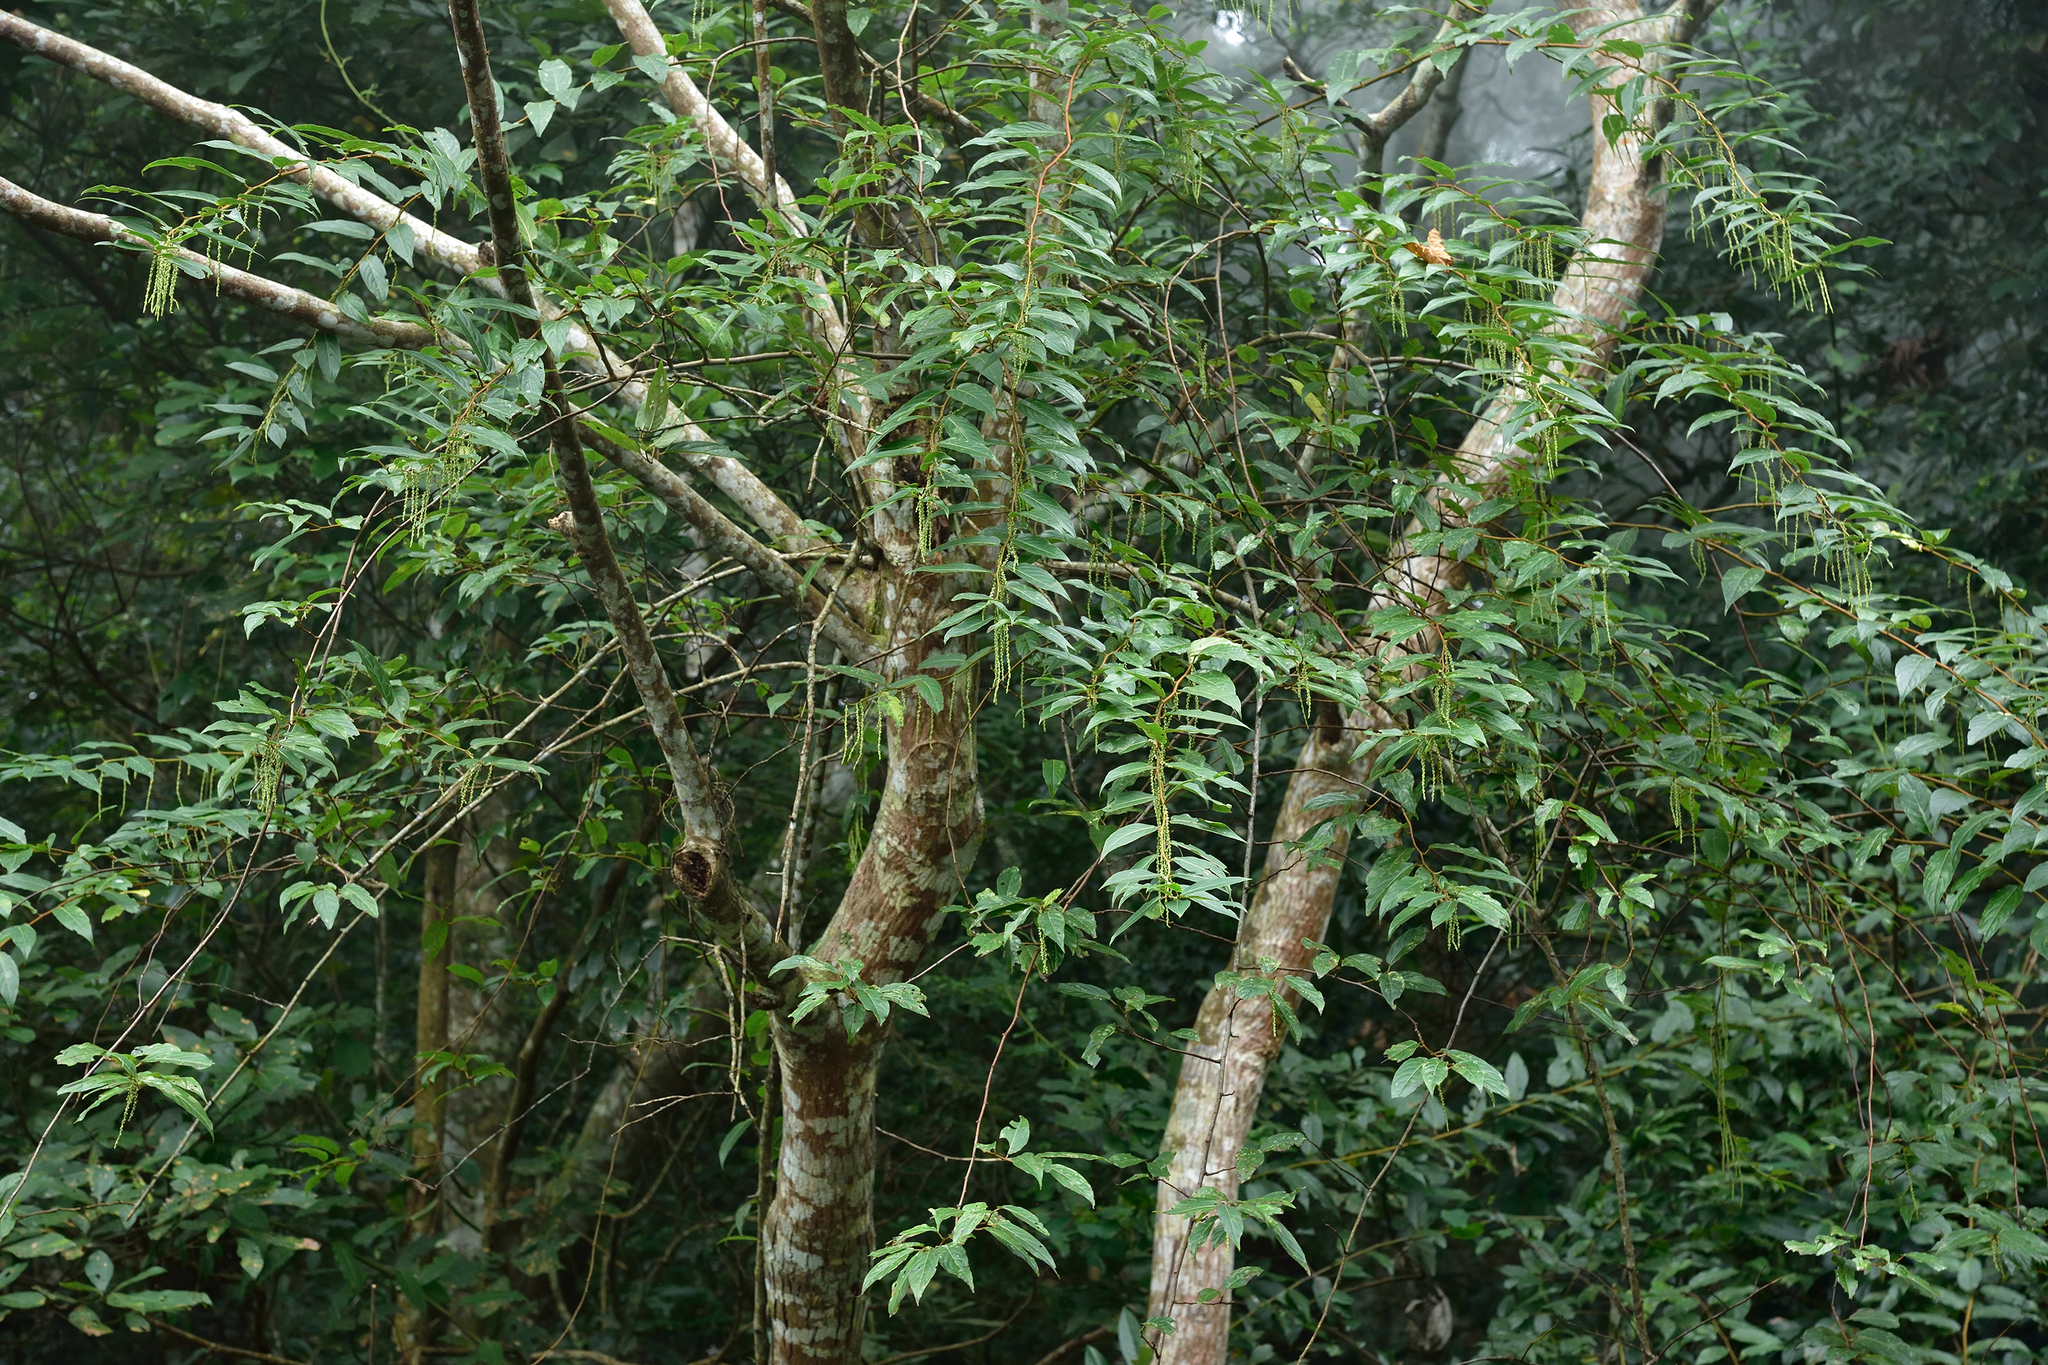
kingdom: Plantae
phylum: Tracheophyta
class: Magnoliopsida
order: Crossosomatales
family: Stachyuraceae
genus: Stachyurus
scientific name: Stachyurus himalaicus
